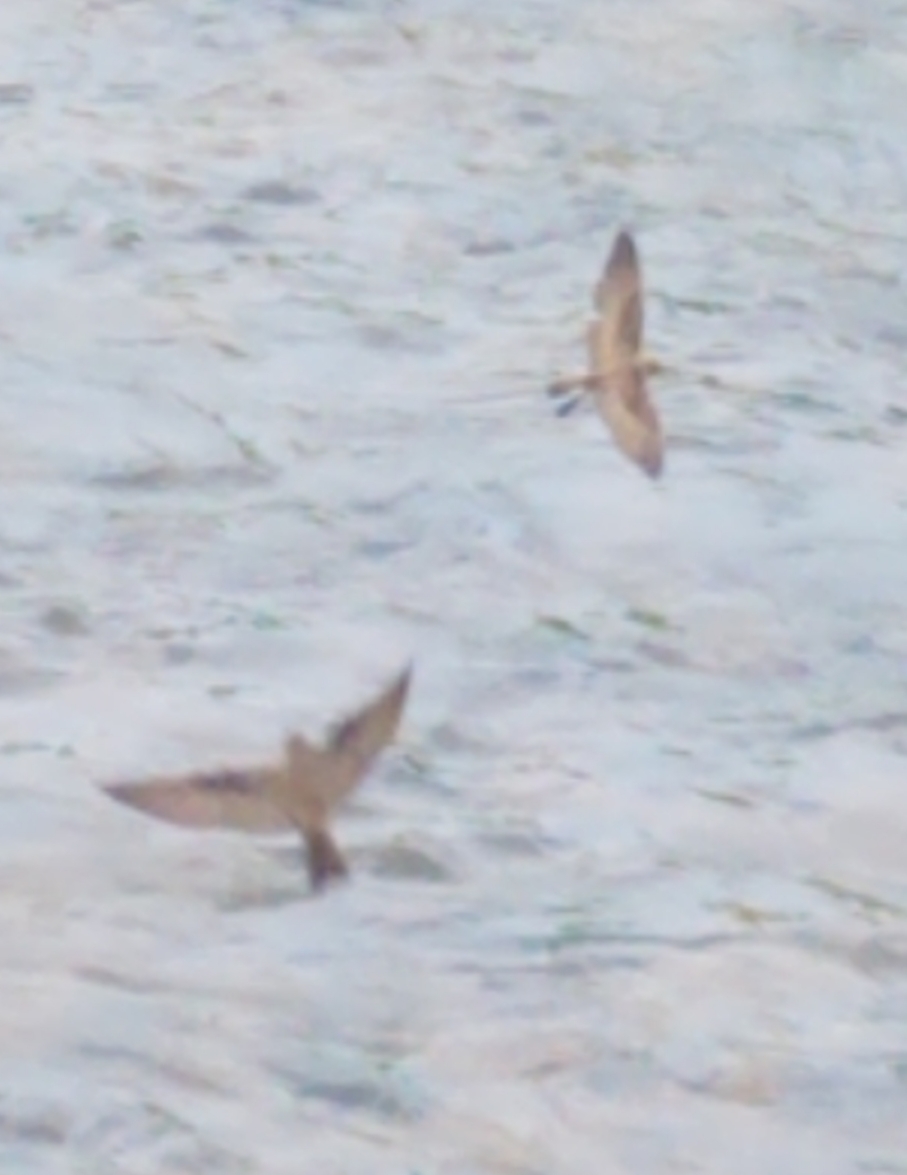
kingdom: Animalia
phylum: Chordata
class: Aves
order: Passeriformes
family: Hirundinidae
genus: Stelgidopteryx
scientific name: Stelgidopteryx serripennis
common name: Northern rough-winged swallow
